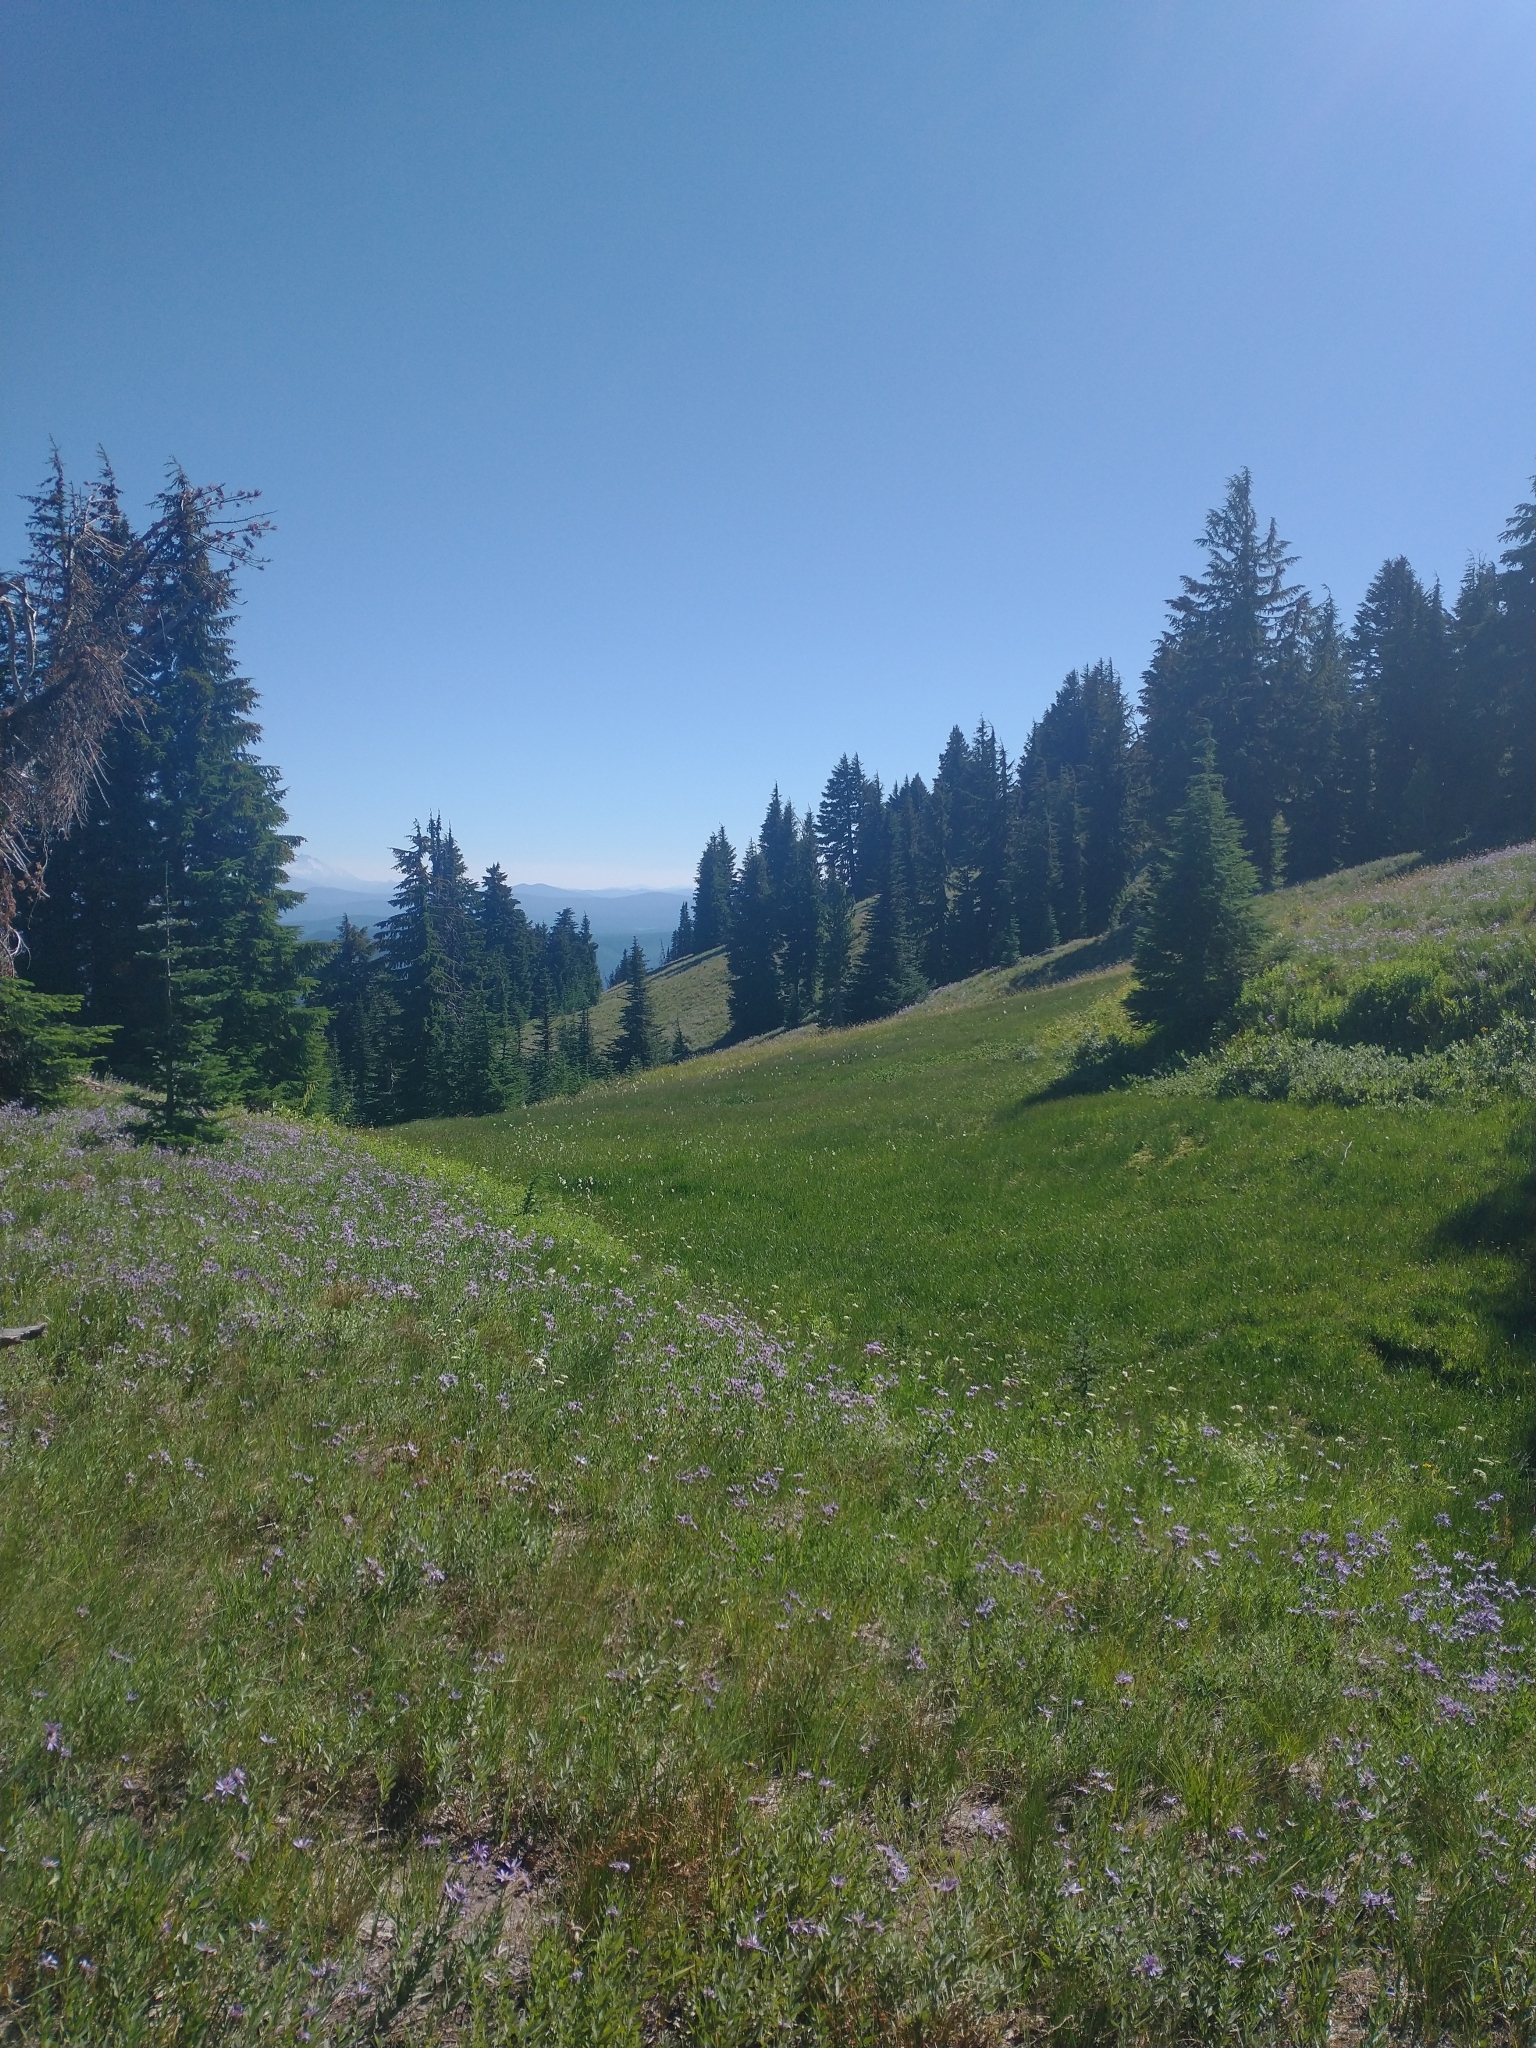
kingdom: Plantae
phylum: Tracheophyta
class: Magnoliopsida
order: Asterales
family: Asteraceae
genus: Eucephalus
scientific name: Eucephalus ledophyllus
